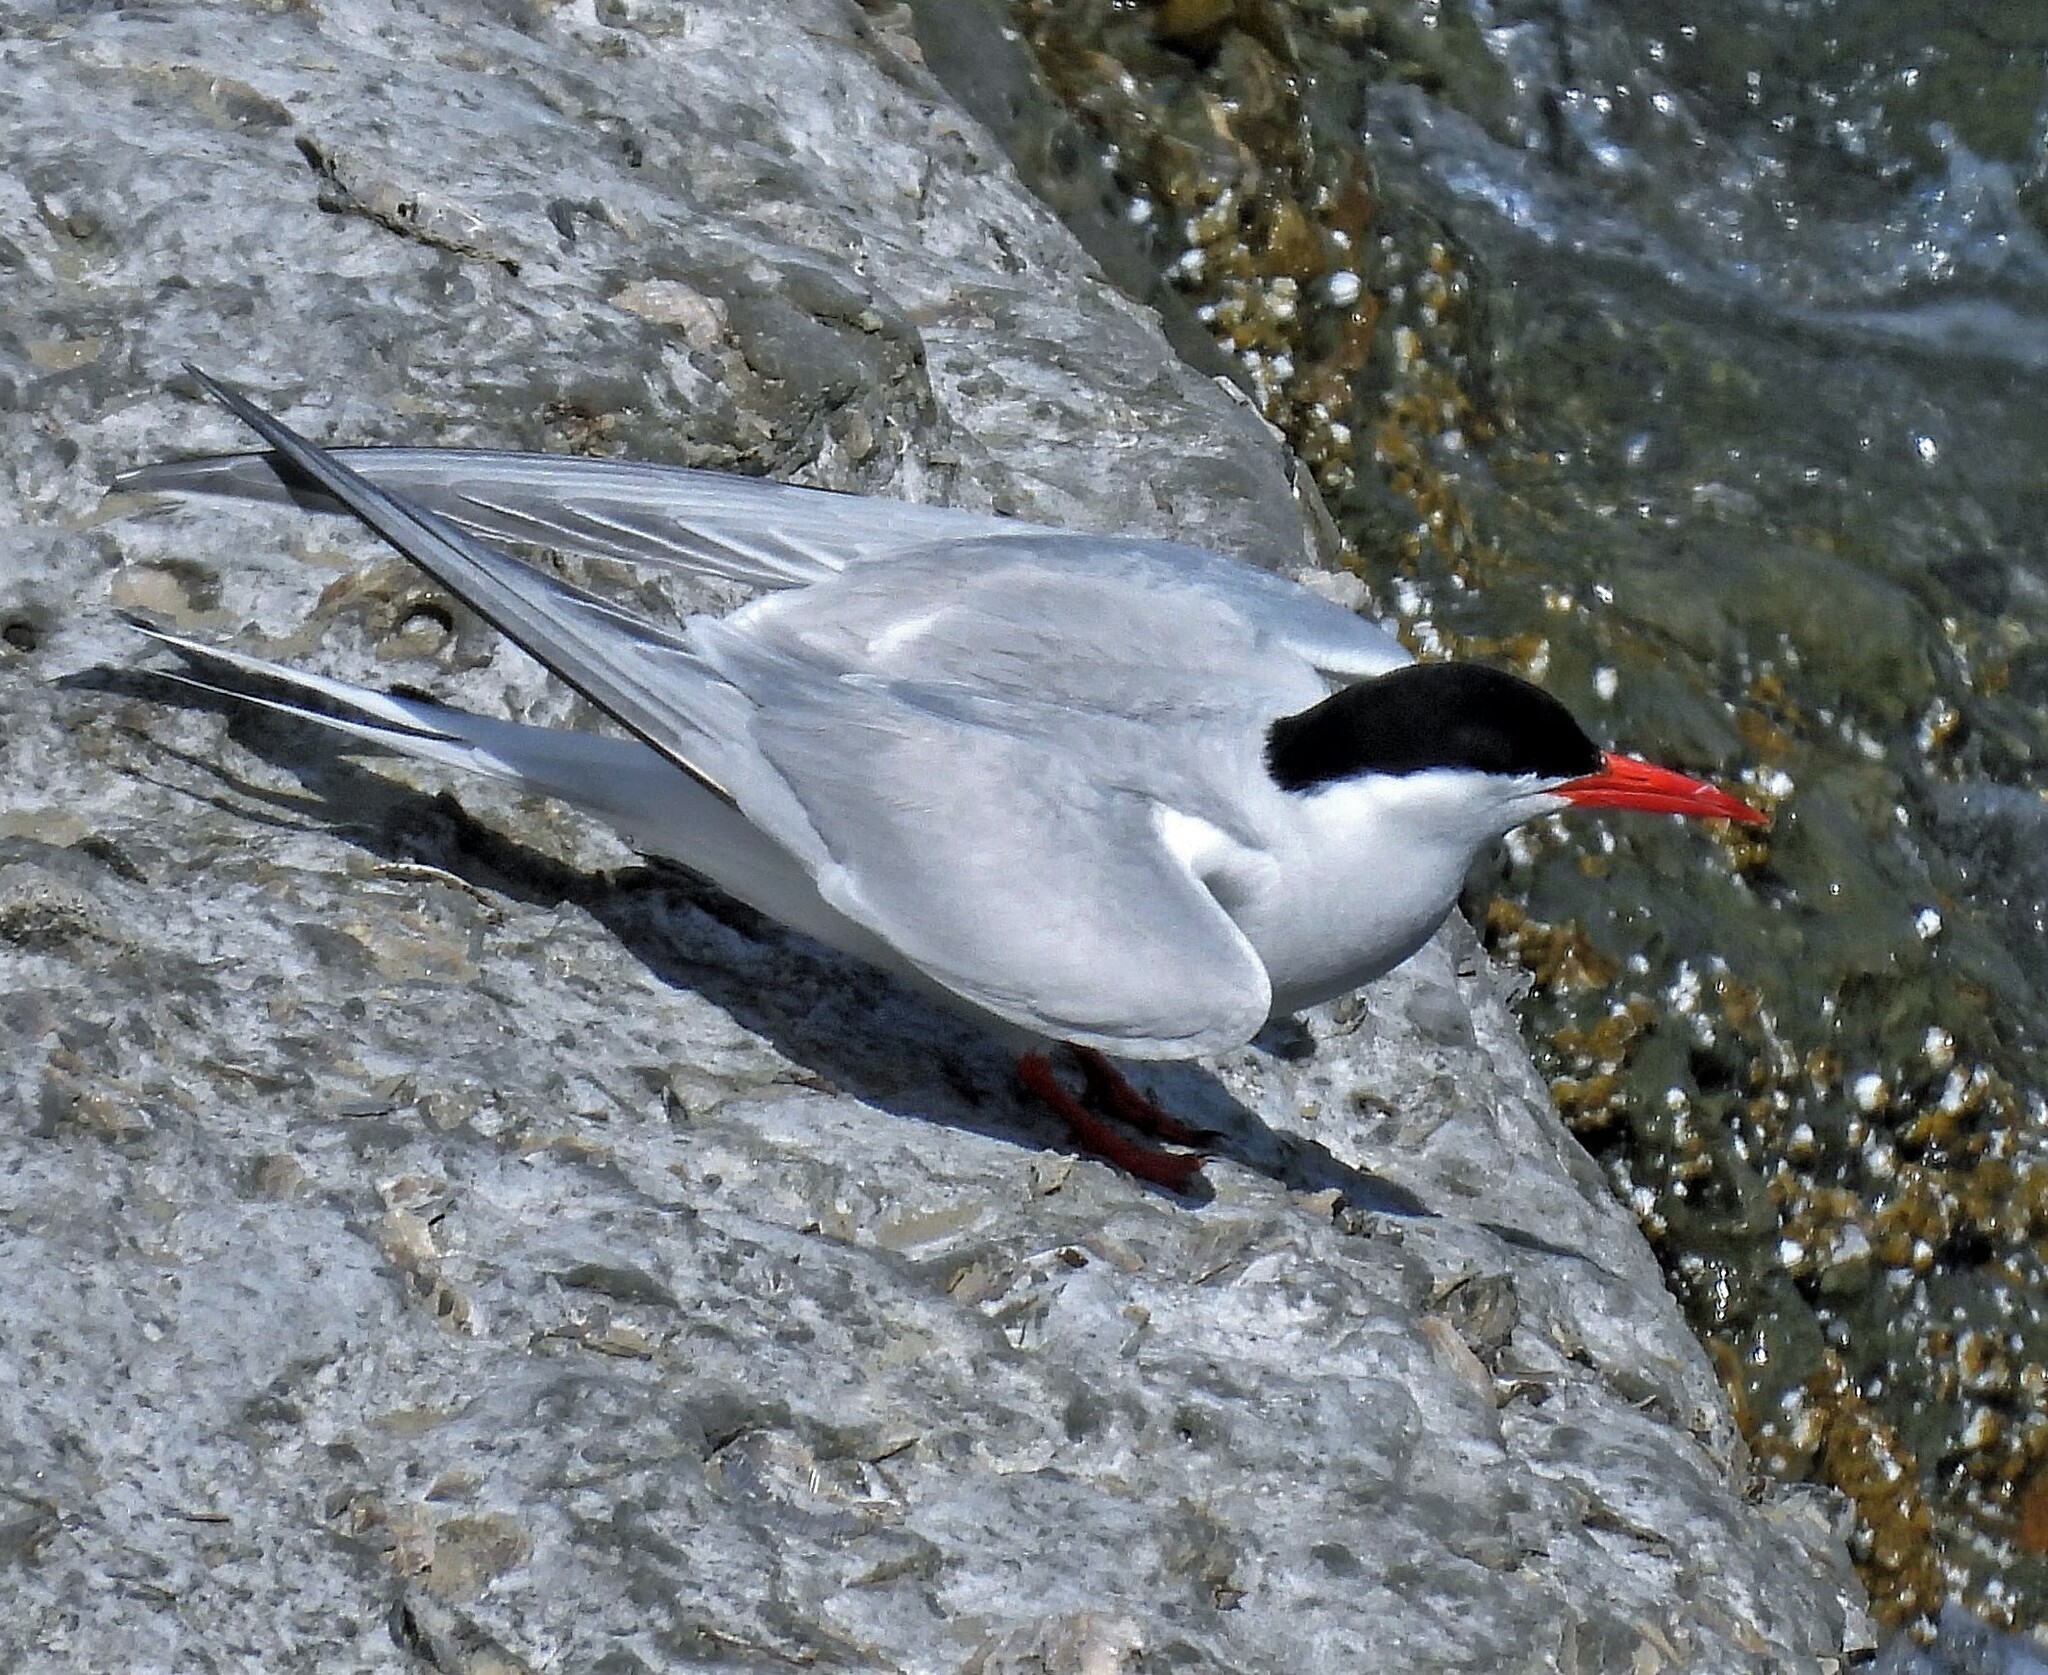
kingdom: Animalia
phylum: Chordata
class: Aves
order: Charadriiformes
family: Laridae
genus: Sterna
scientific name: Sterna hirundinacea
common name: South american tern
